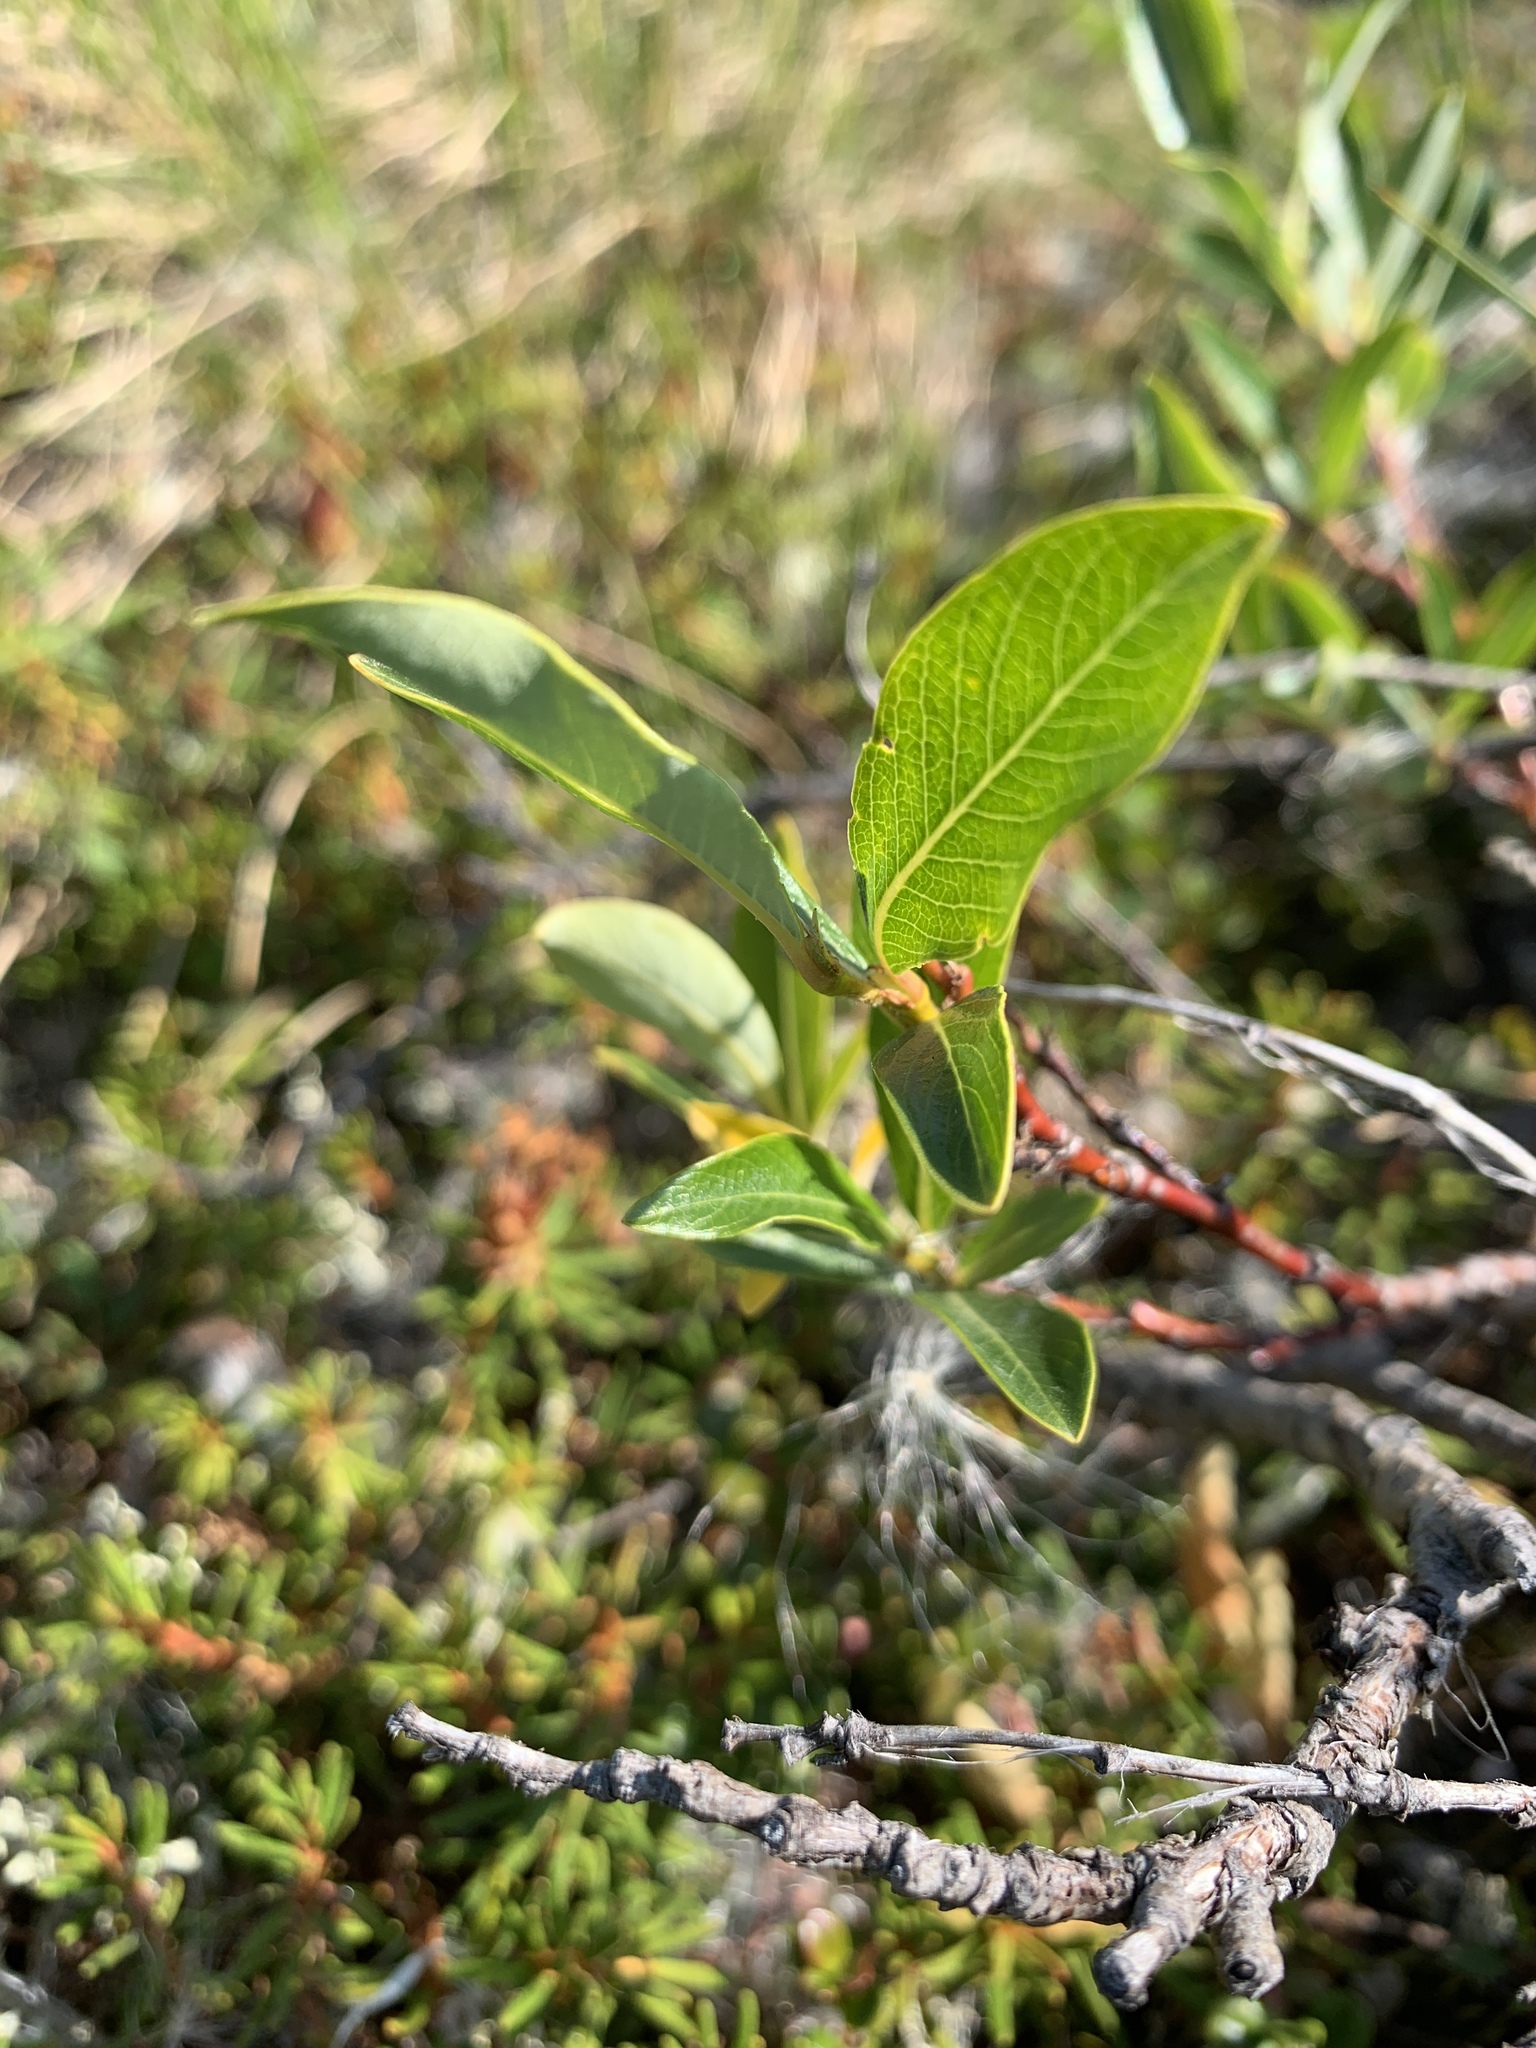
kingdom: Plantae
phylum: Tracheophyta
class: Magnoliopsida
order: Malpighiales
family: Salicaceae
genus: Salix
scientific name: Salix pulchra
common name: Diamond-leaved willow
